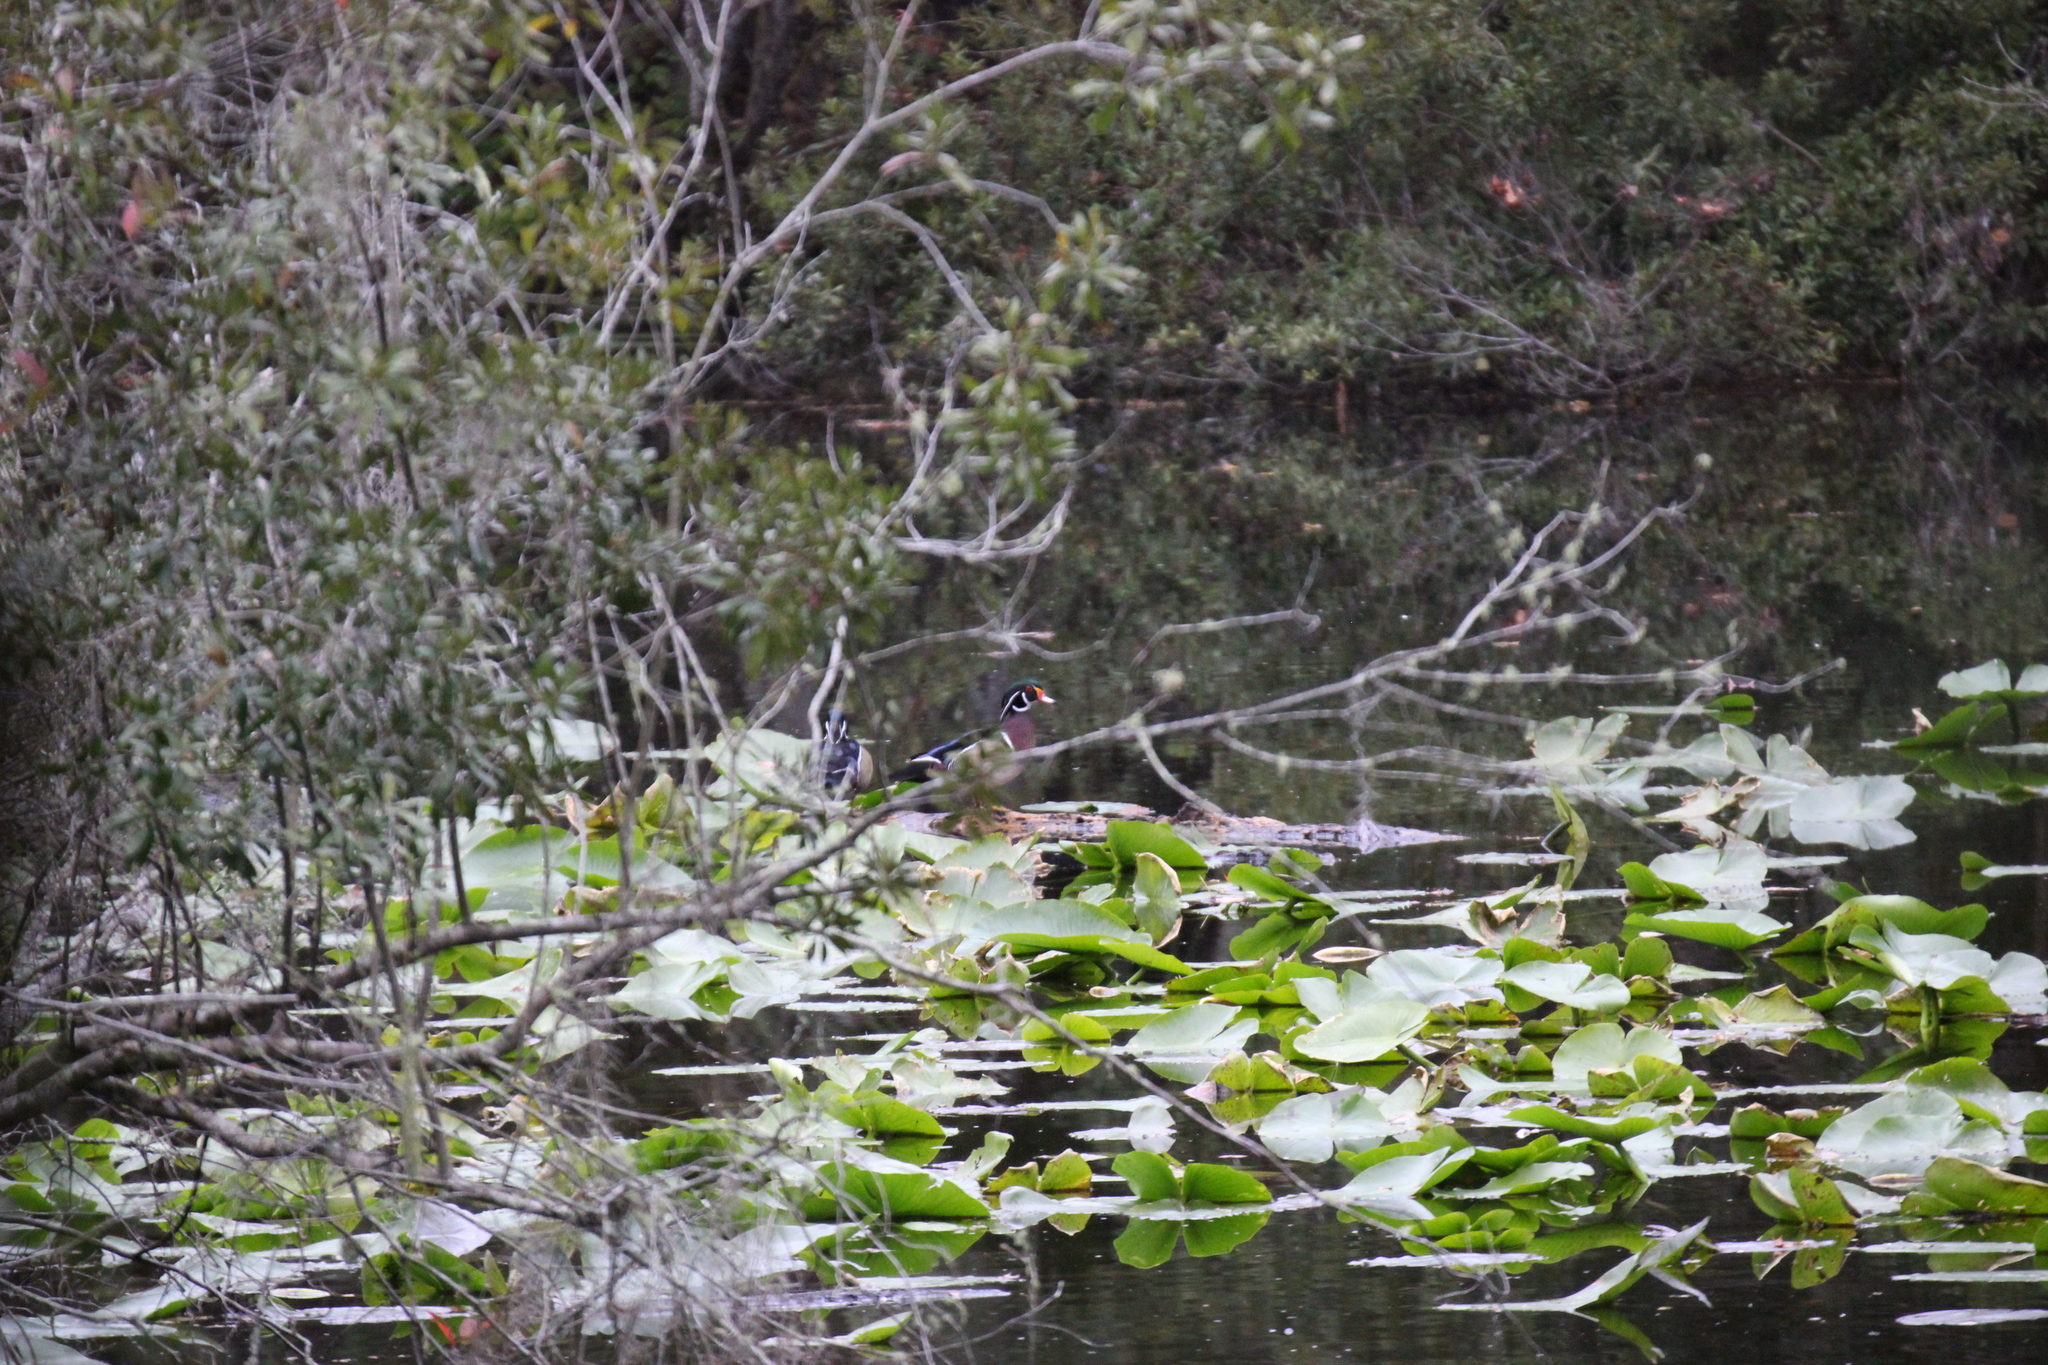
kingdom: Animalia
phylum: Chordata
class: Aves
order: Anseriformes
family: Anatidae
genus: Aix
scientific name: Aix sponsa
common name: Wood duck
